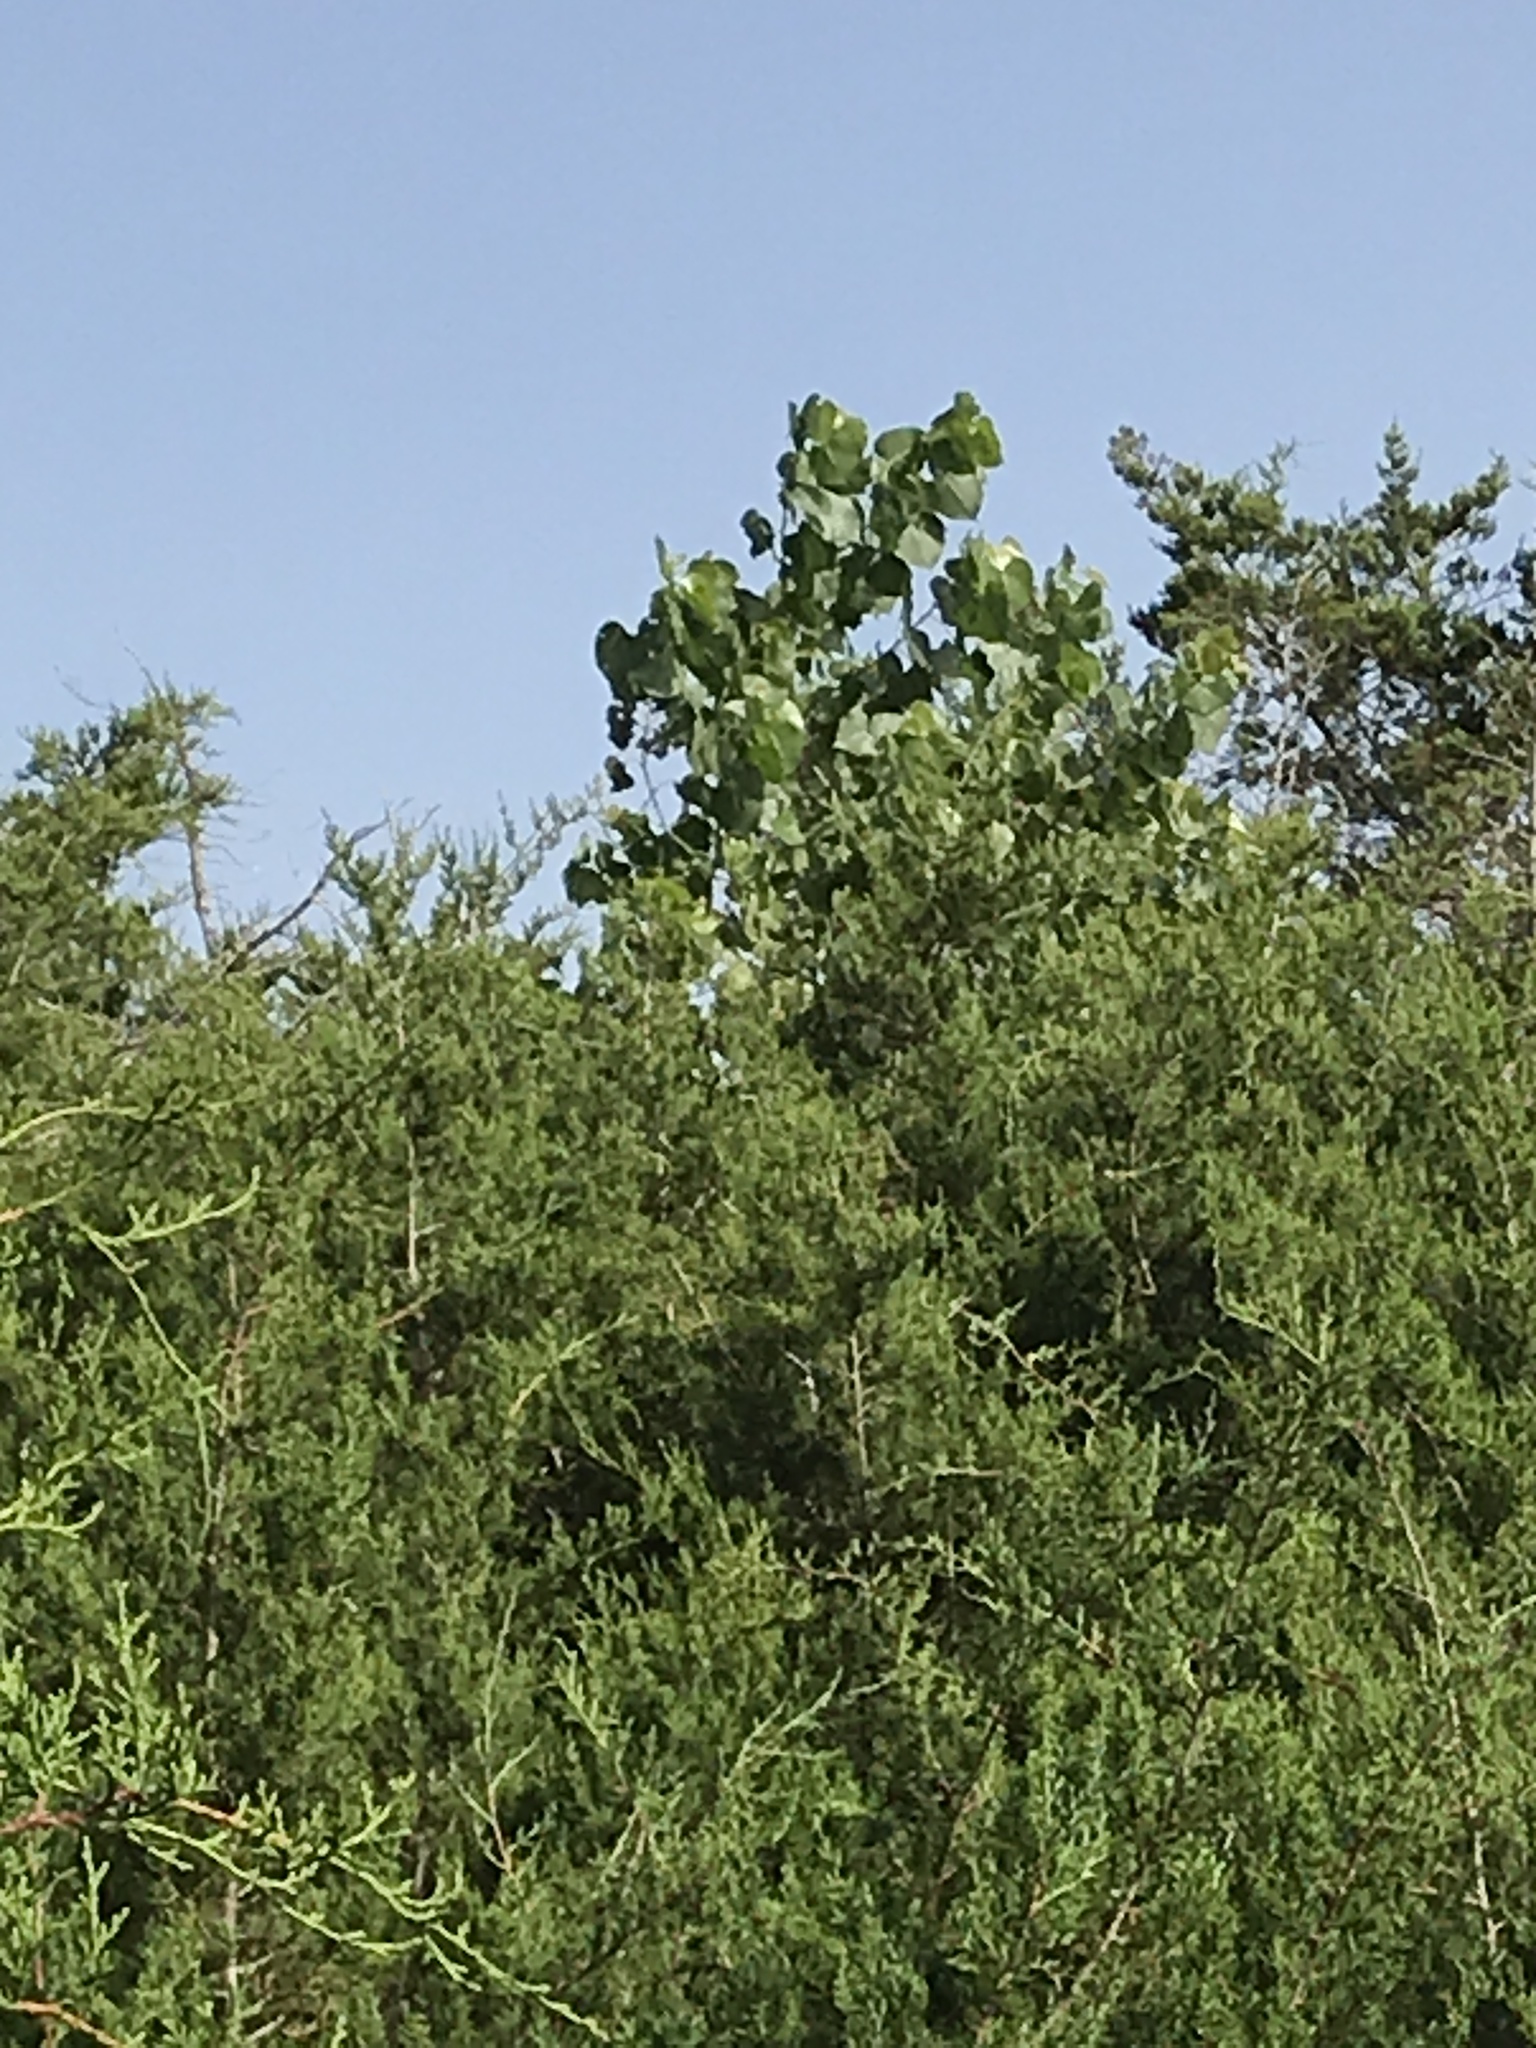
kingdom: Plantae
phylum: Tracheophyta
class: Magnoliopsida
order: Malpighiales
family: Salicaceae
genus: Populus
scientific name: Populus deltoides
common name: Eastern cottonwood
